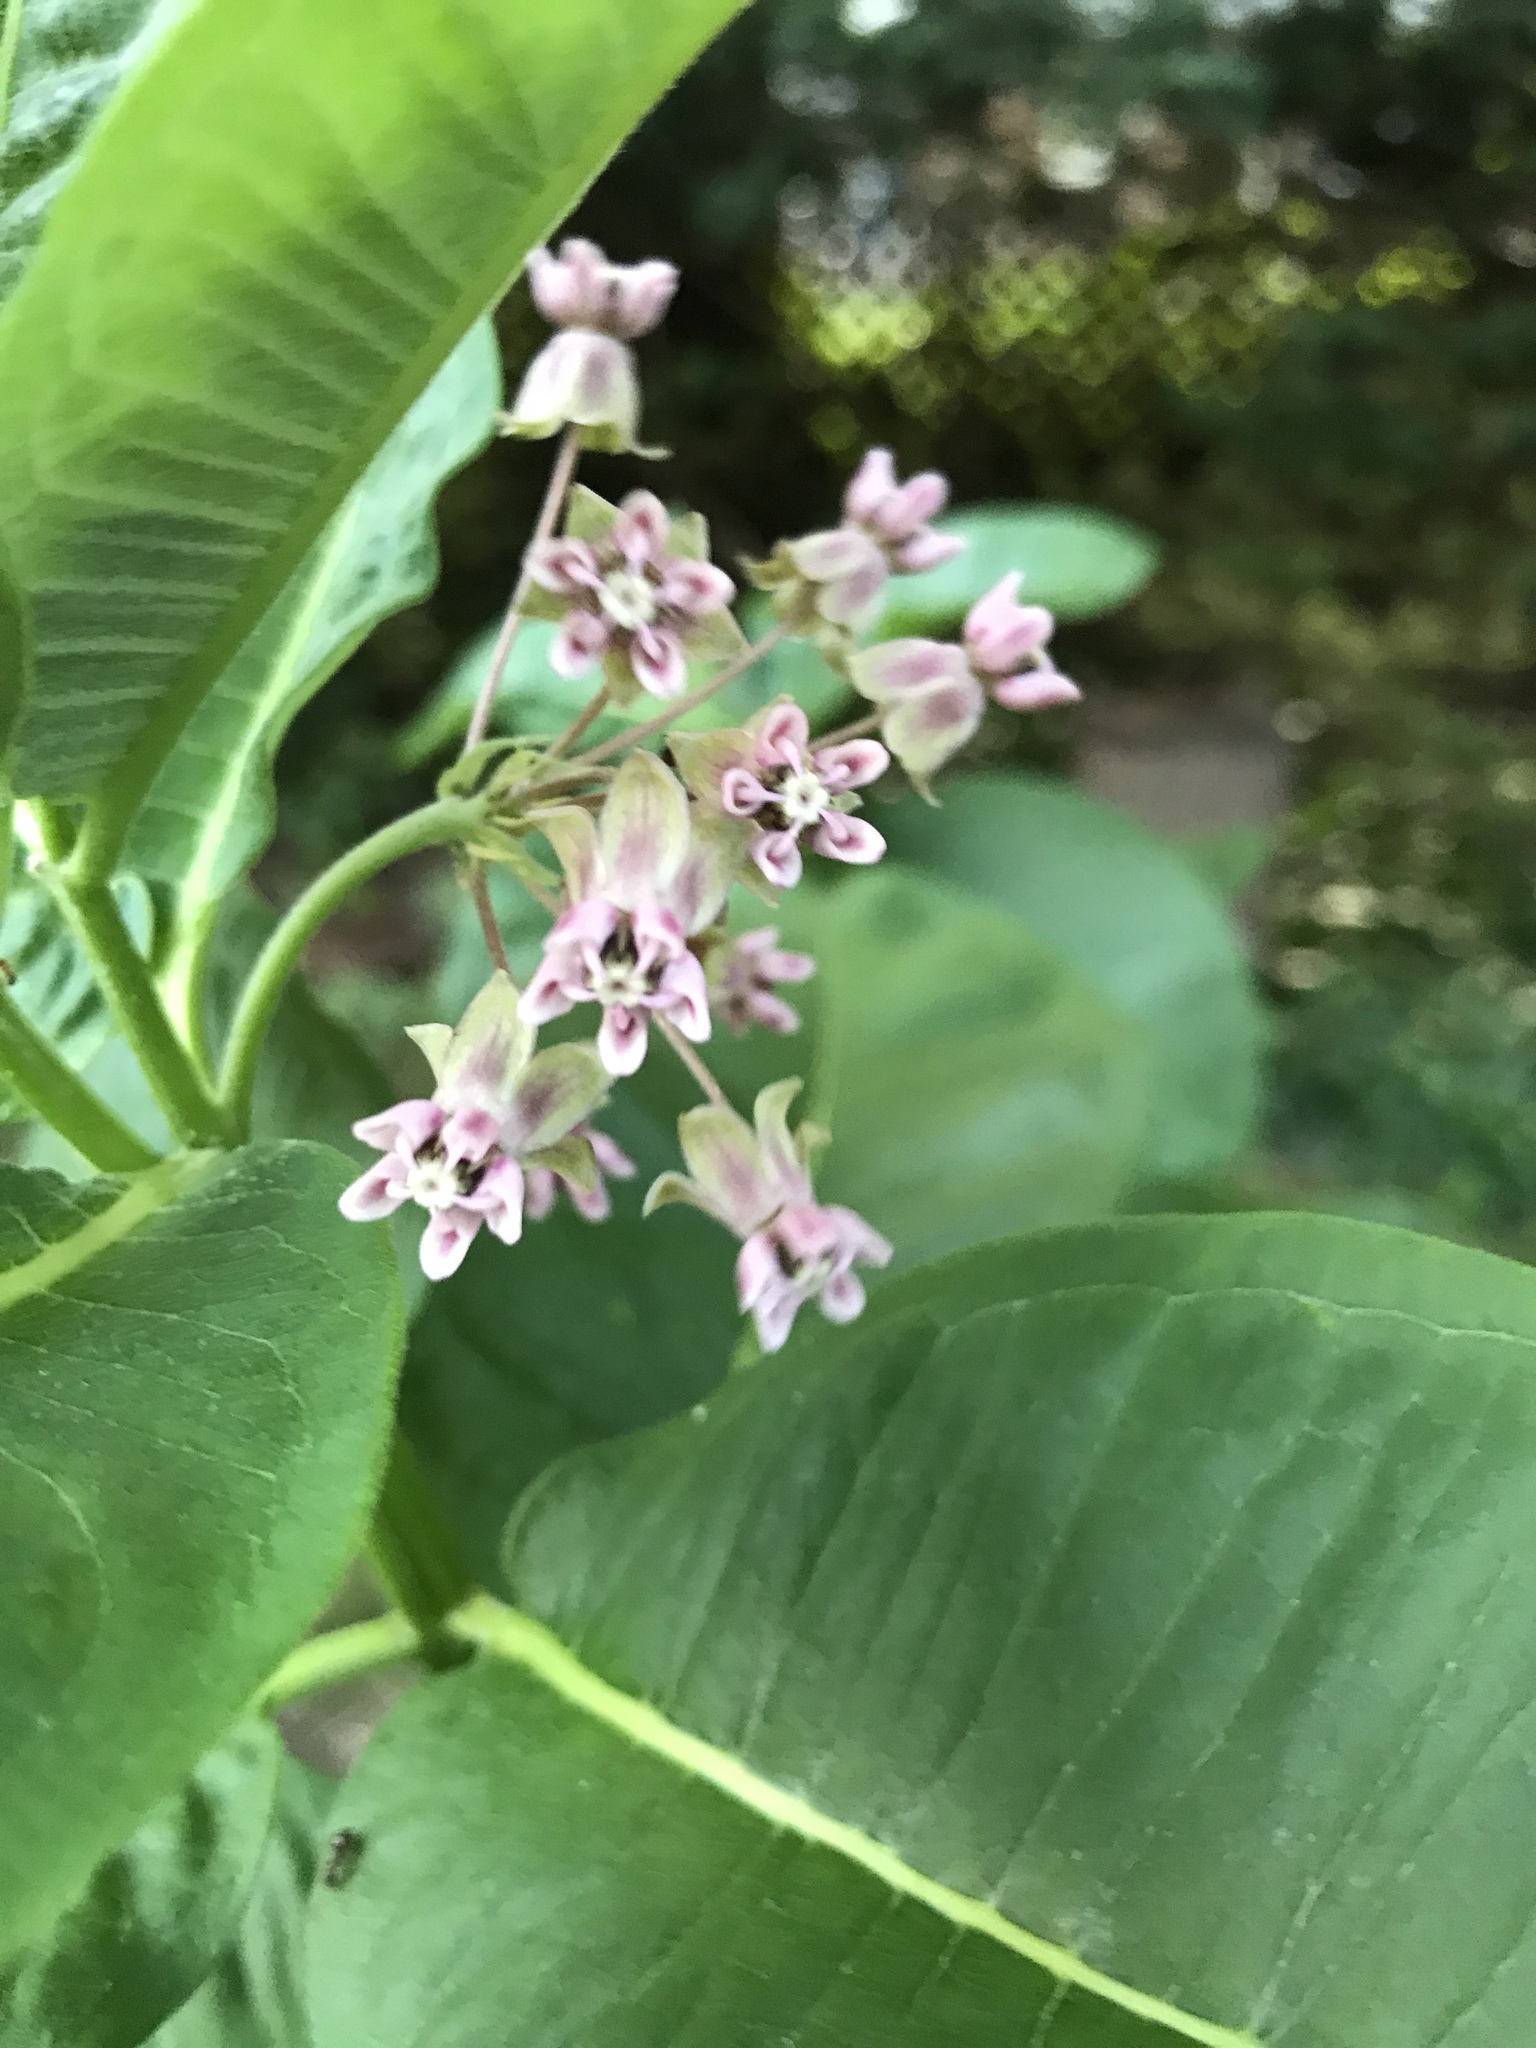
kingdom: Plantae
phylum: Tracheophyta
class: Magnoliopsida
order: Gentianales
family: Apocynaceae
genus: Asclepias
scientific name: Asclepias syriaca
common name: Common milkweed
